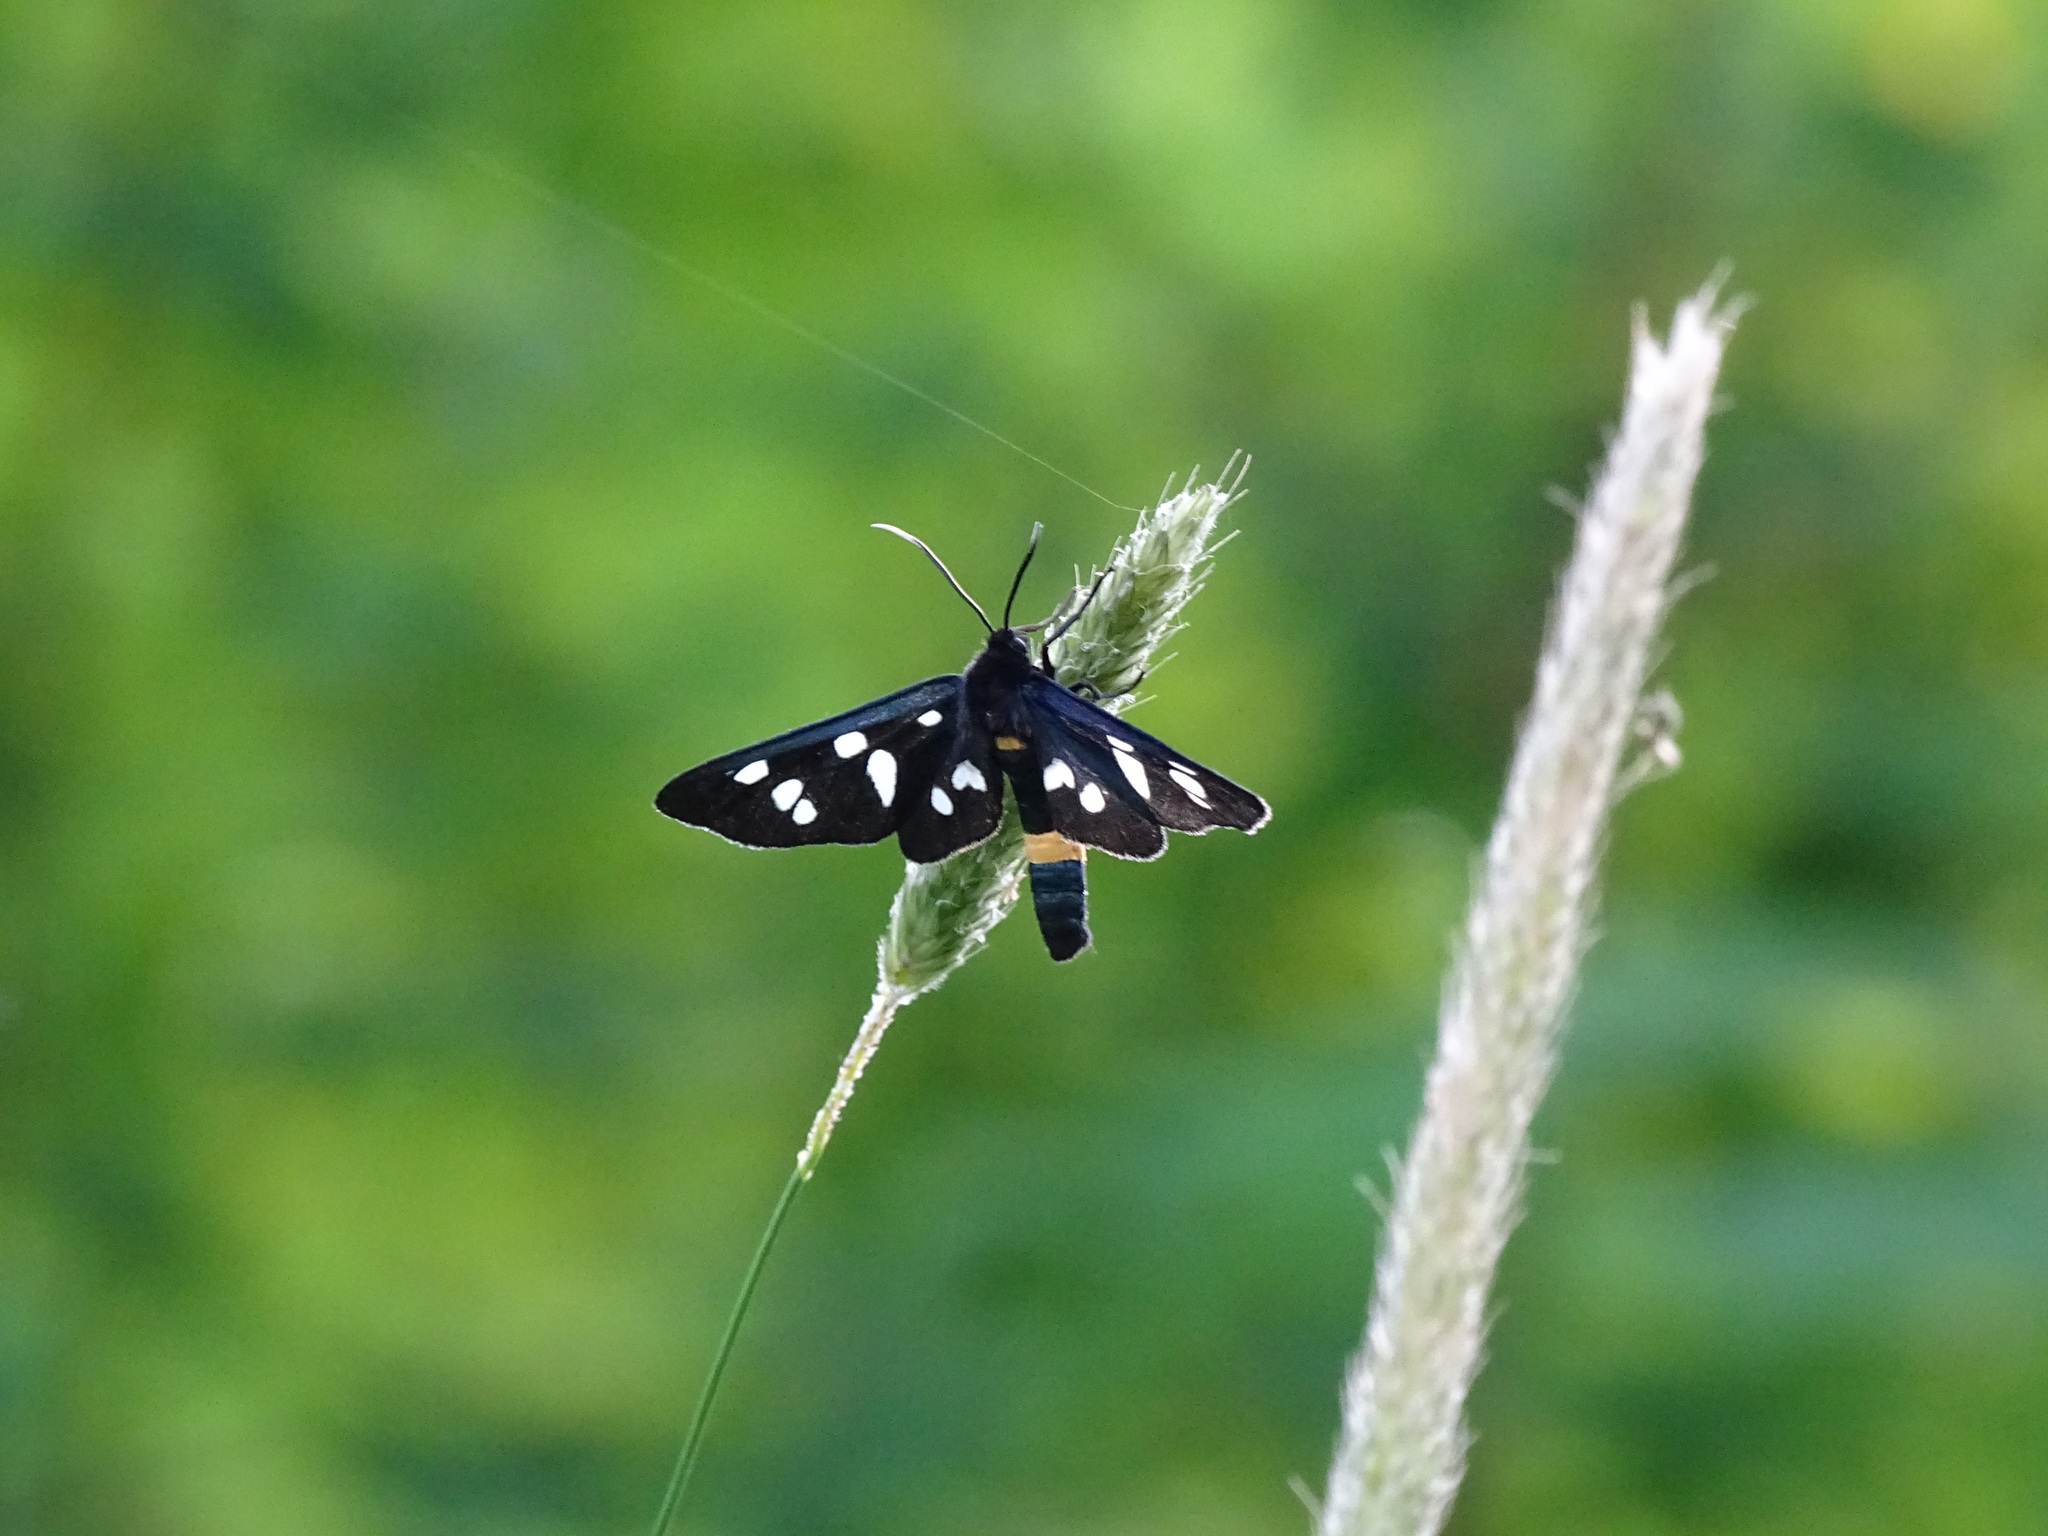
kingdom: Animalia
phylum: Arthropoda
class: Insecta
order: Lepidoptera
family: Erebidae
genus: Amata
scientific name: Amata phegea
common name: Nine-spotted
